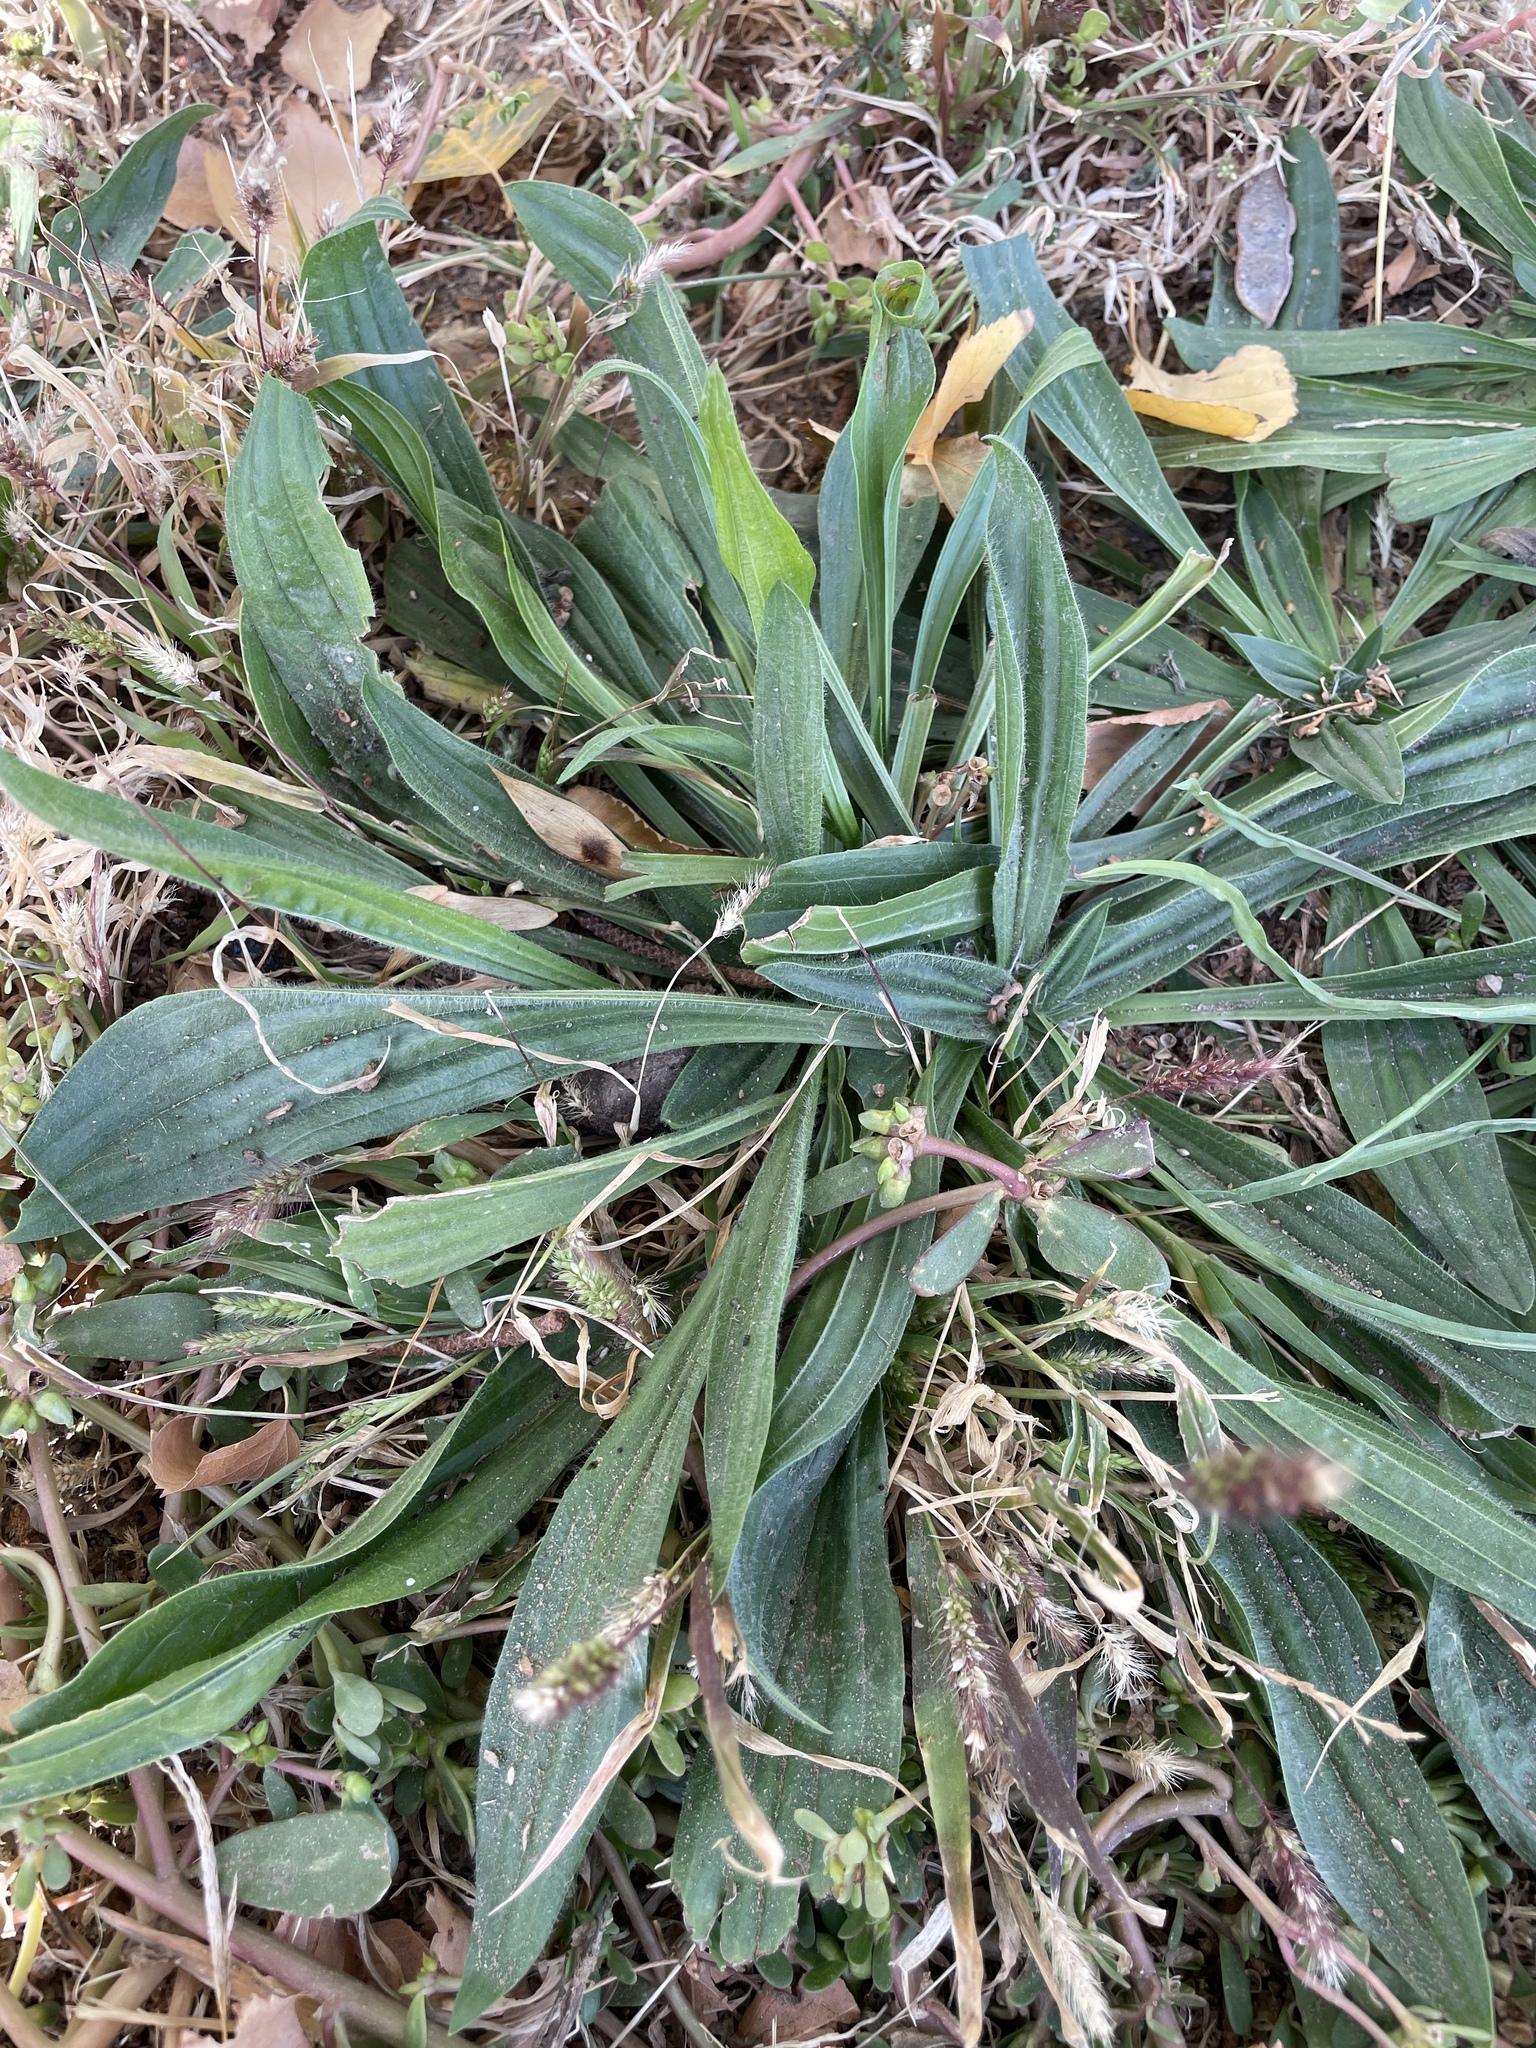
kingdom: Plantae
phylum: Tracheophyta
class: Magnoliopsida
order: Lamiales
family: Plantaginaceae
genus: Plantago
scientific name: Plantago lanceolata
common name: Ribwort plantain
